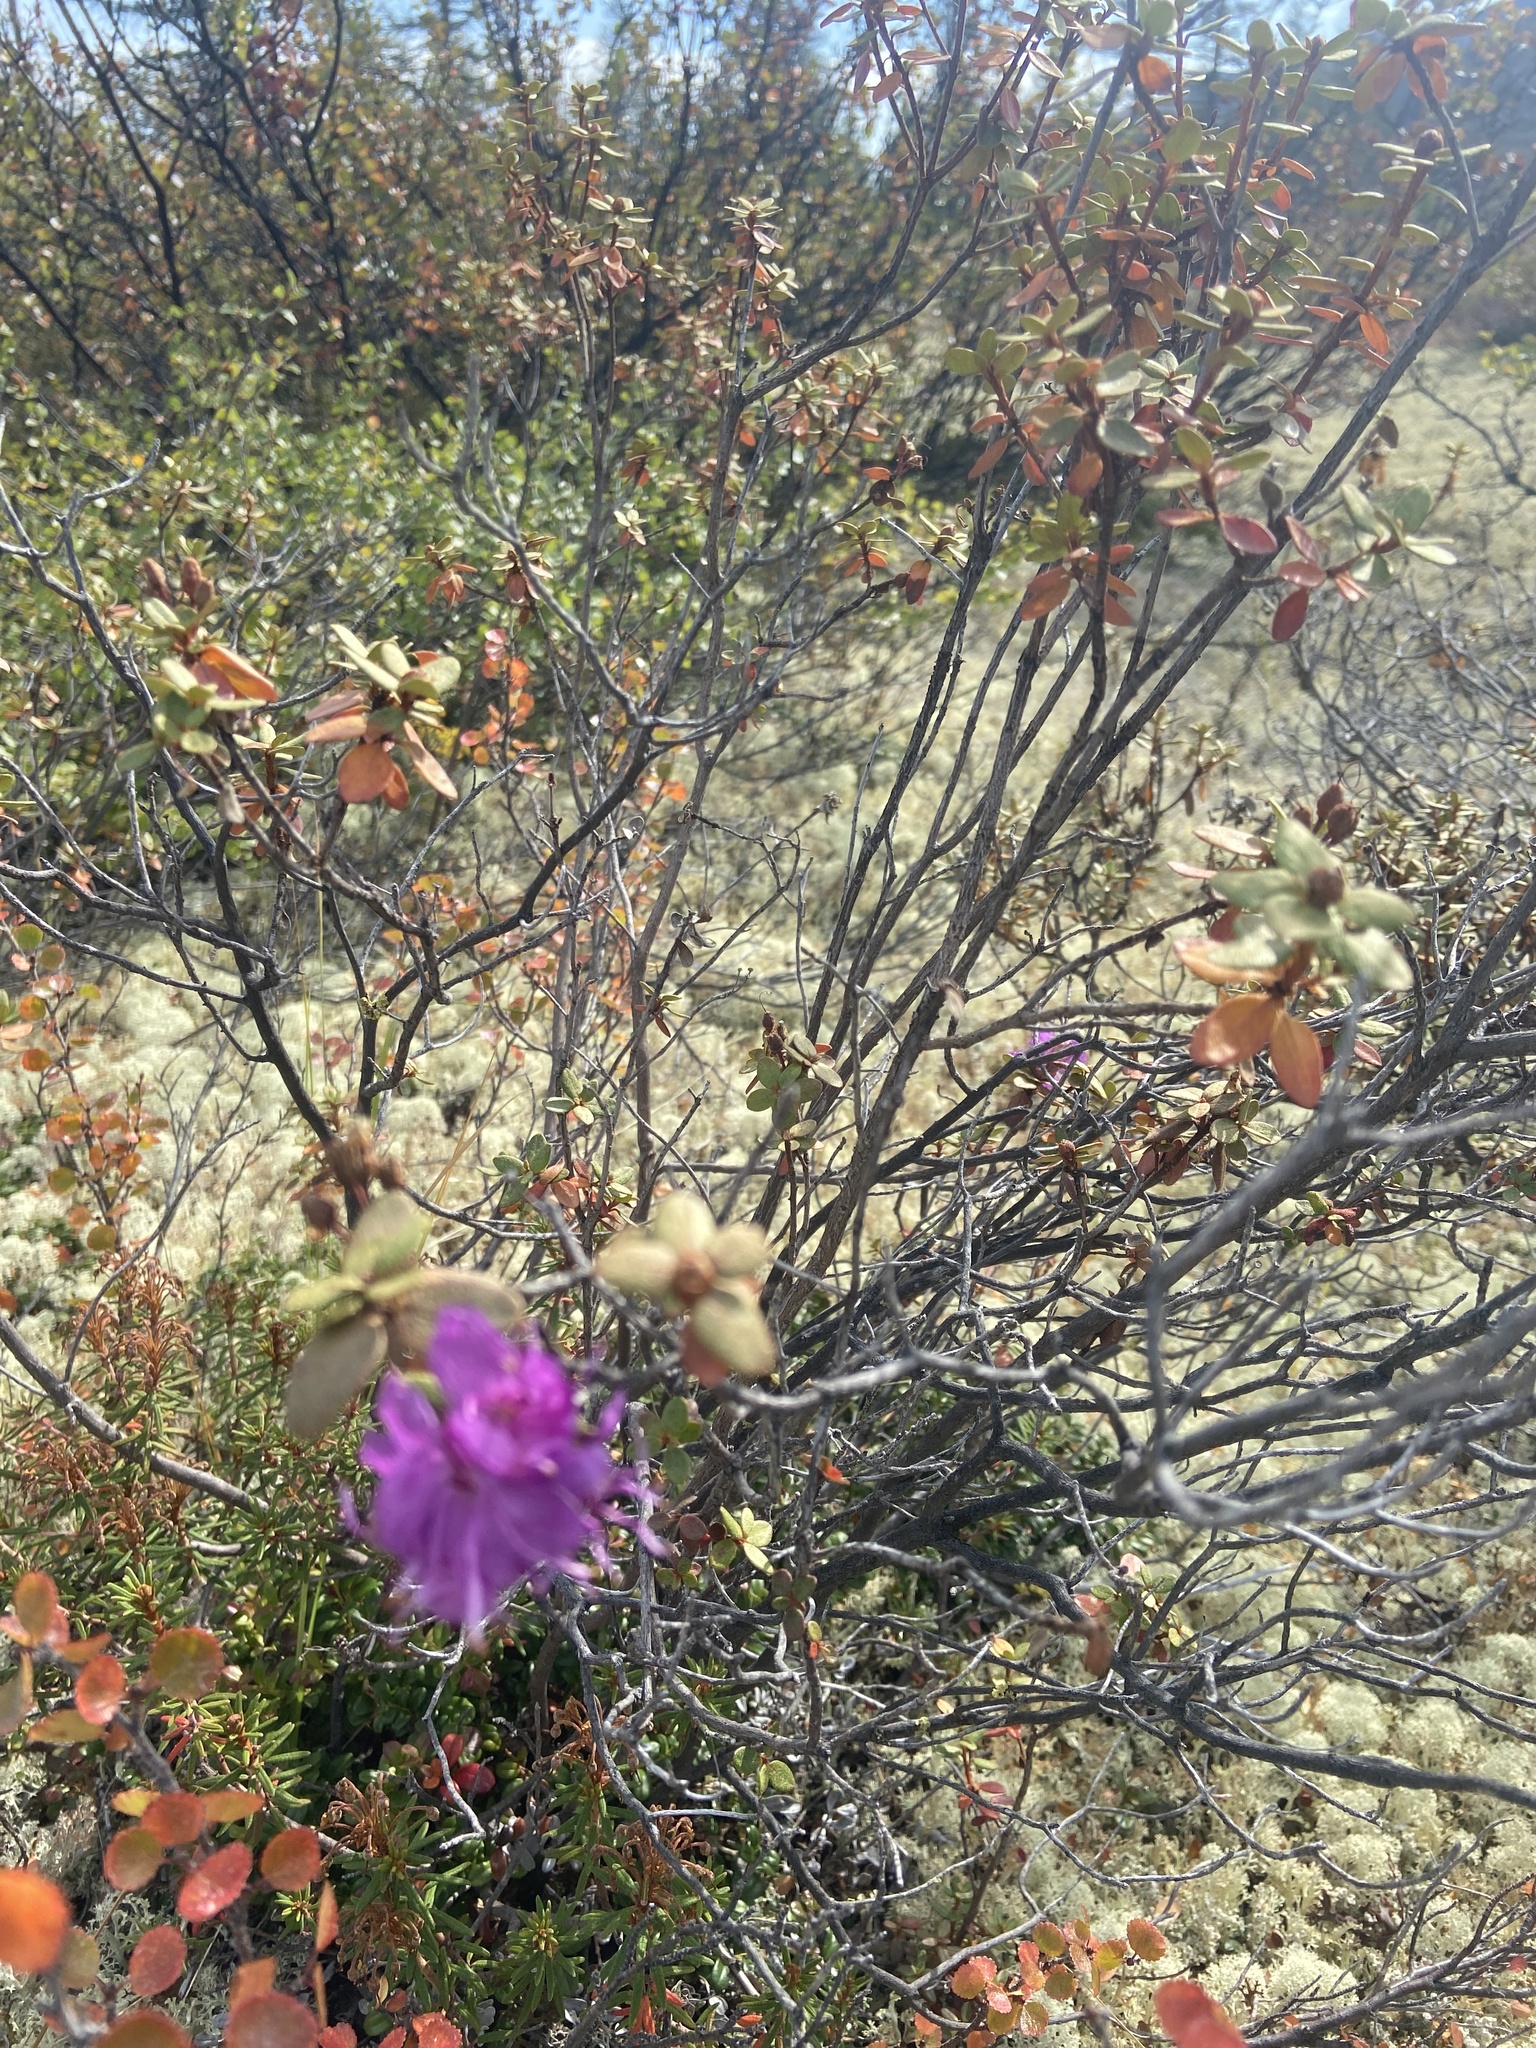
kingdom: Plantae
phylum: Tracheophyta
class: Magnoliopsida
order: Ericales
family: Ericaceae
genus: Rhododendron
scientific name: Rhododendron parvifolium
